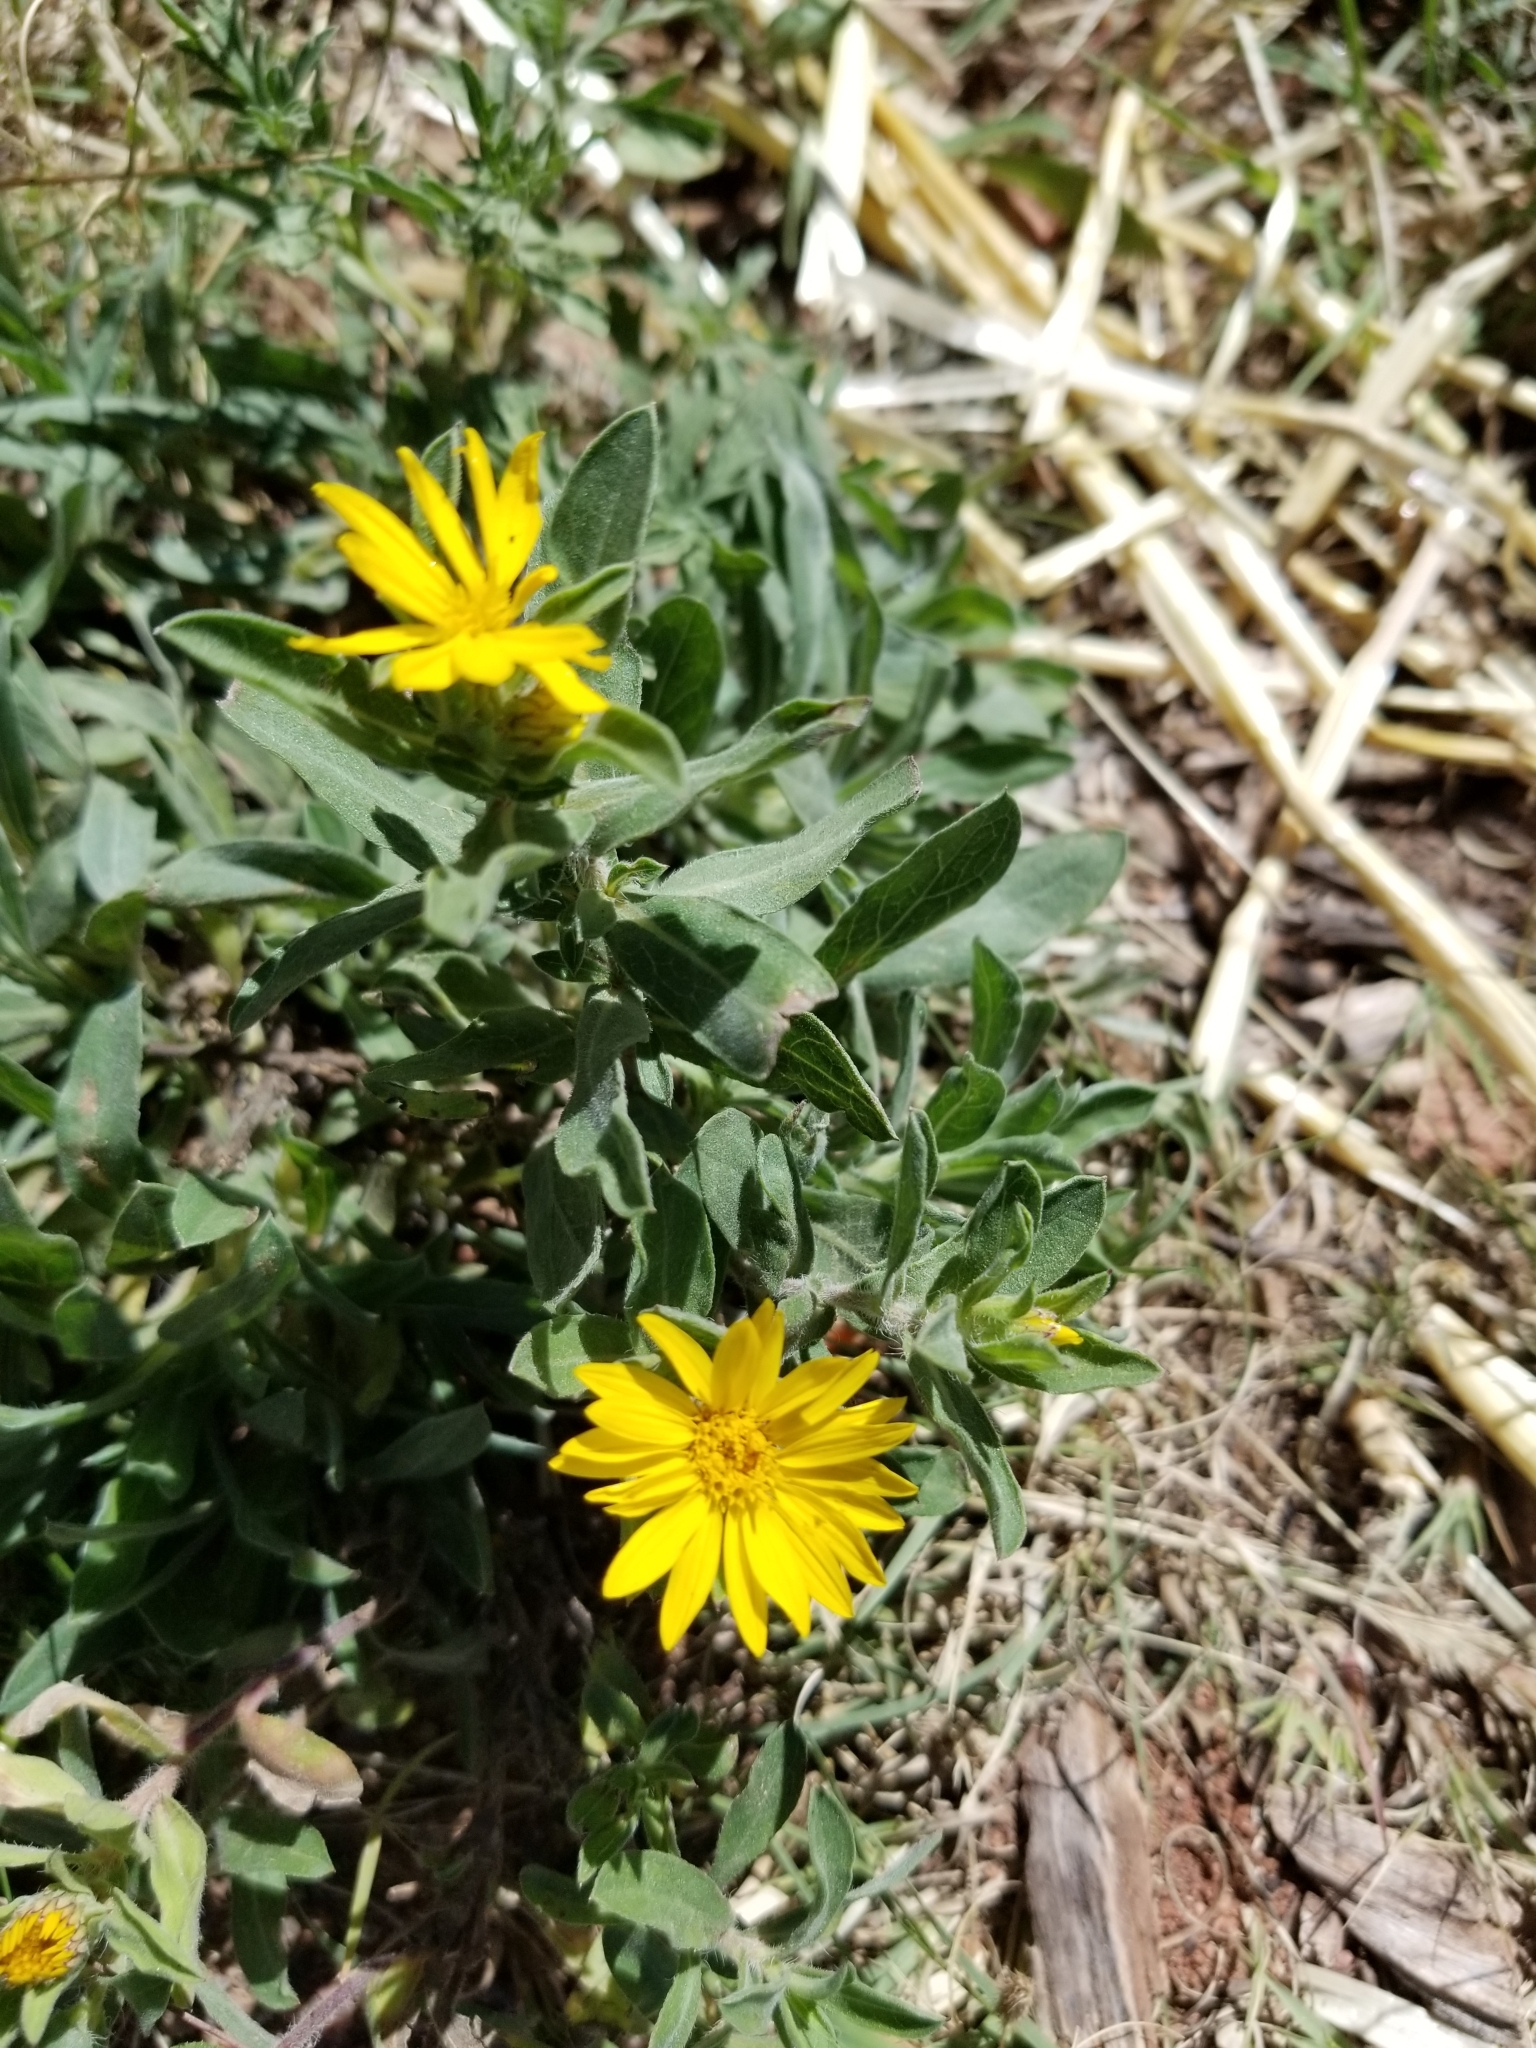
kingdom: Plantae
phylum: Tracheophyta
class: Magnoliopsida
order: Asterales
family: Asteraceae
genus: Heterotheca
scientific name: Heterotheca villosa
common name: Hairy false goldenaster
